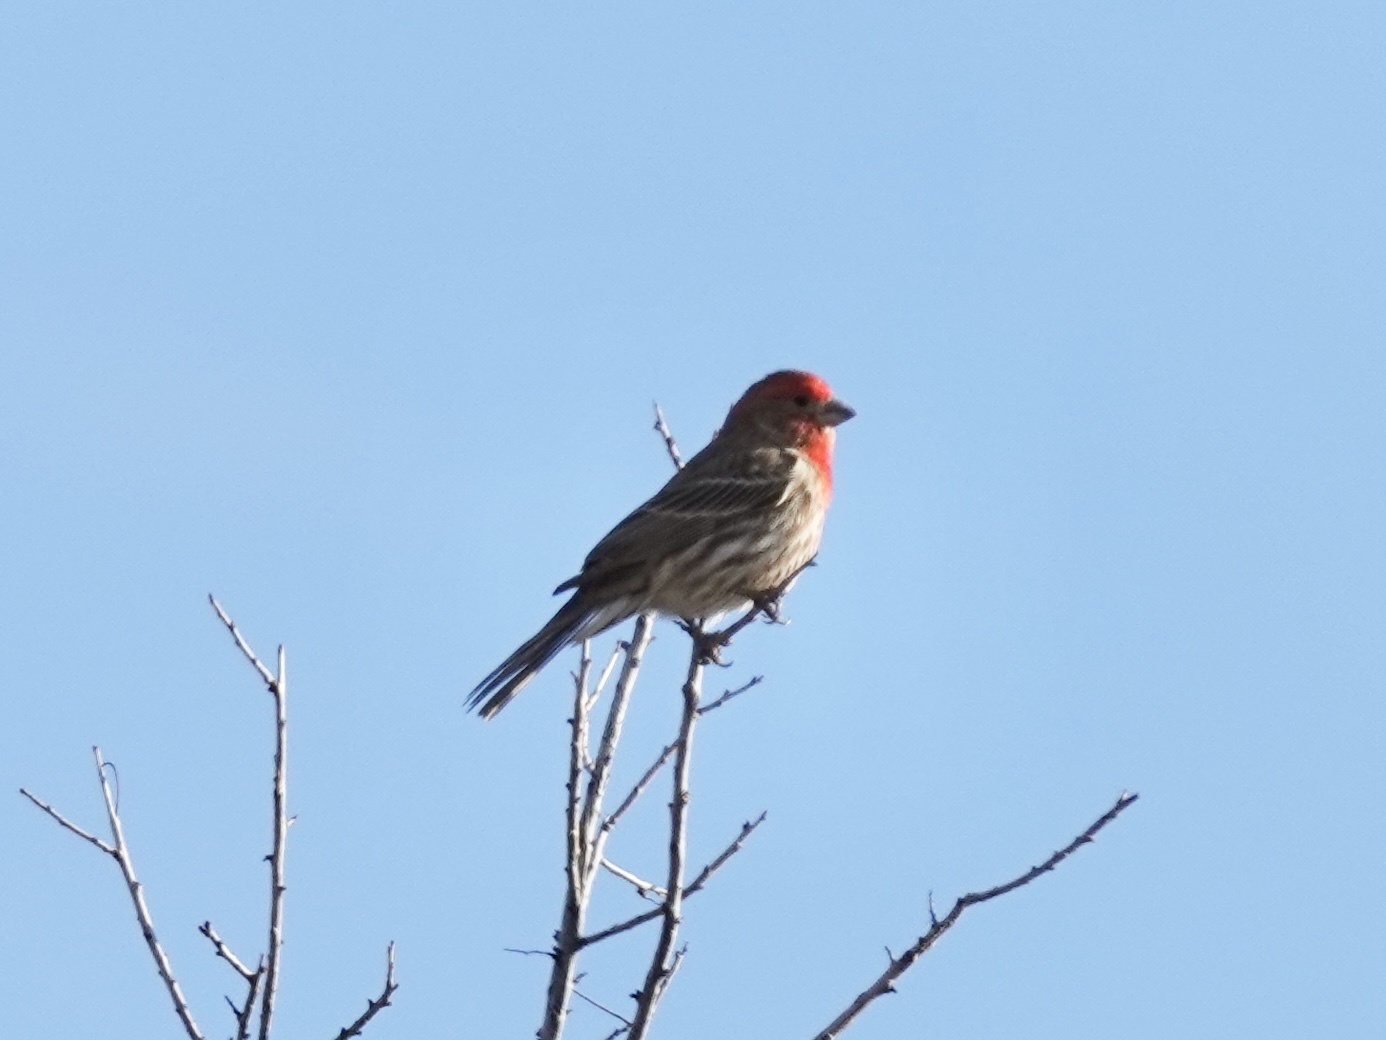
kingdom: Animalia
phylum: Chordata
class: Aves
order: Passeriformes
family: Fringillidae
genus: Haemorhous
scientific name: Haemorhous mexicanus
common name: House finch
